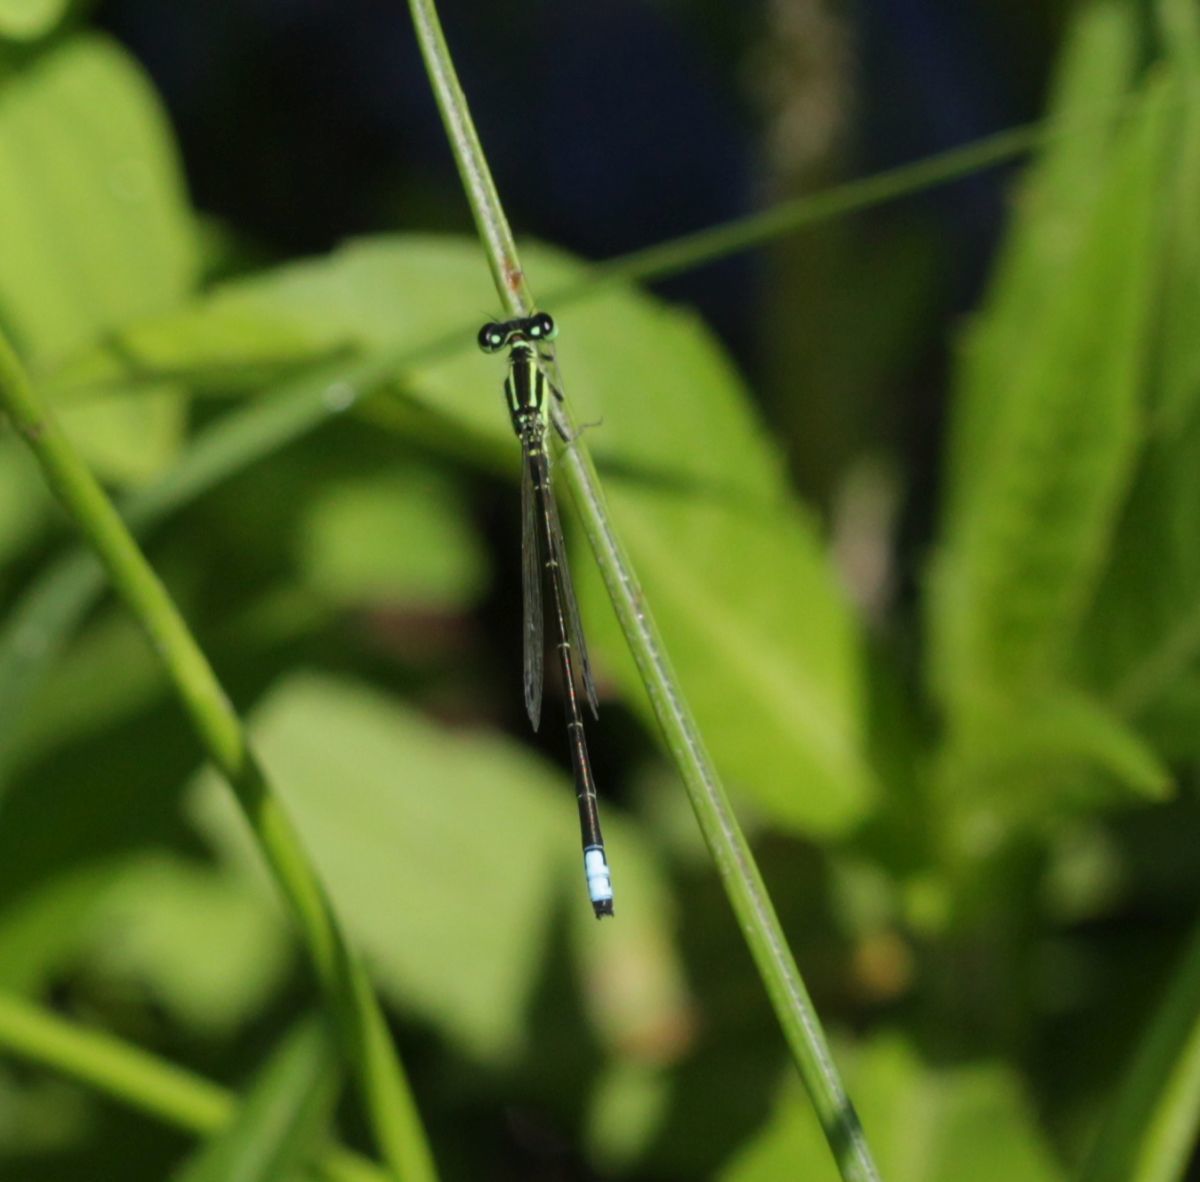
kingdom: Animalia
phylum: Arthropoda
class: Insecta
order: Odonata
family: Coenagrionidae
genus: Ischnura
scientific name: Ischnura verticalis
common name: Eastern forktail
